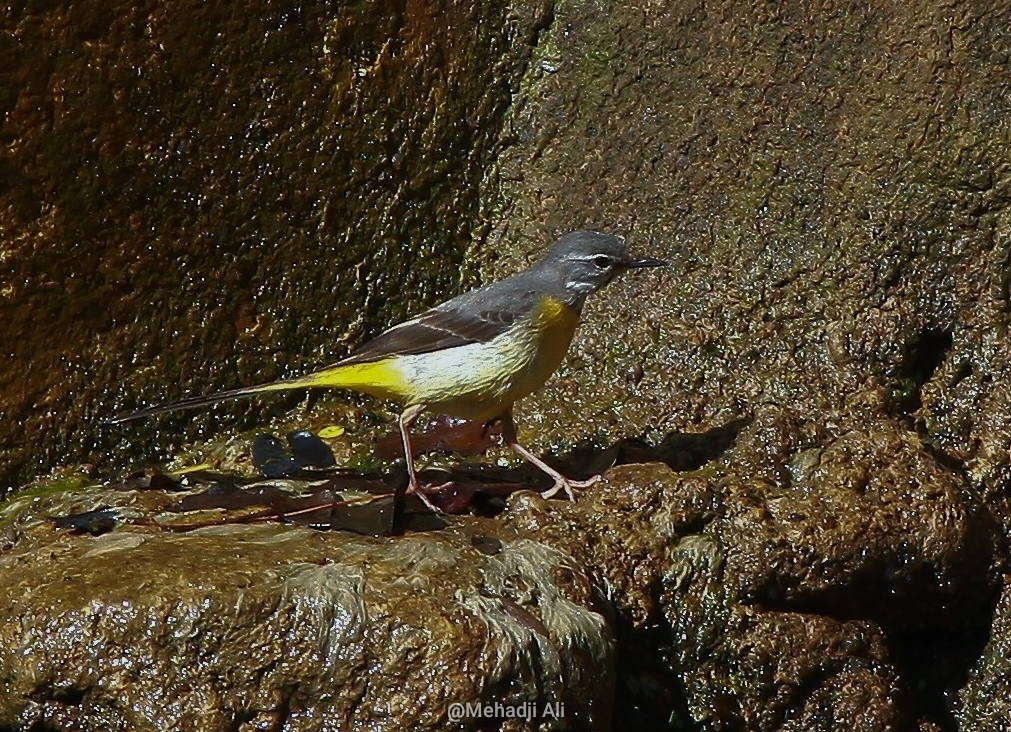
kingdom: Animalia
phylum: Chordata
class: Aves
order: Passeriformes
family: Motacillidae
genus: Motacilla
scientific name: Motacilla cinerea
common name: Grey wagtail
